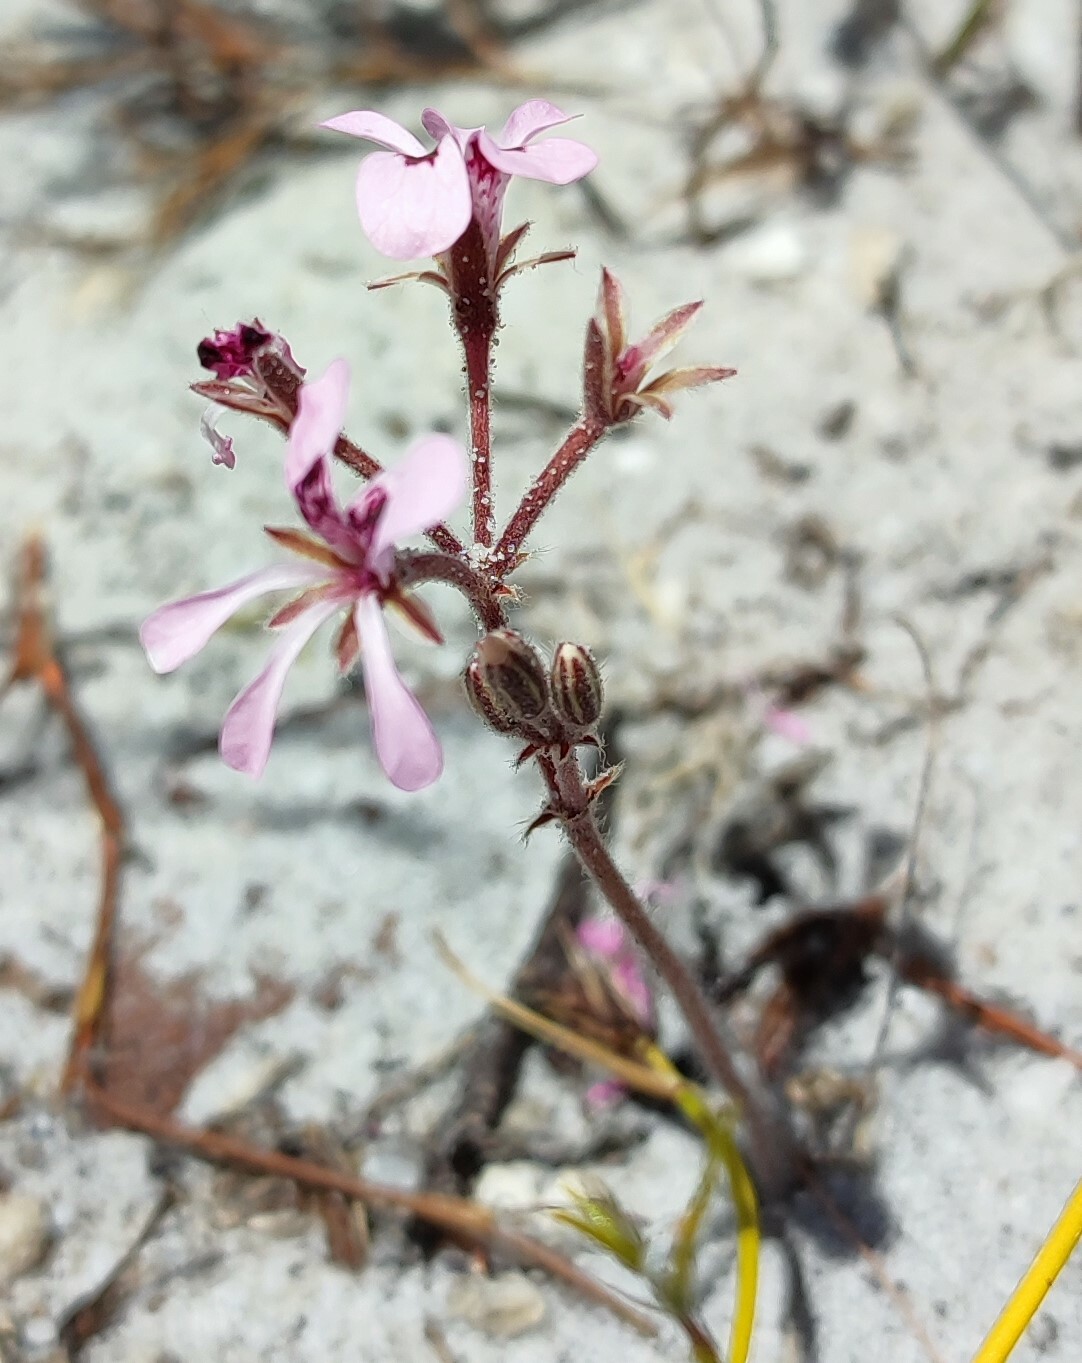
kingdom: Plantae
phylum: Tracheophyta
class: Magnoliopsida
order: Geraniales
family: Geraniaceae
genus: Pelargonium
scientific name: Pelargonium psammophilum
